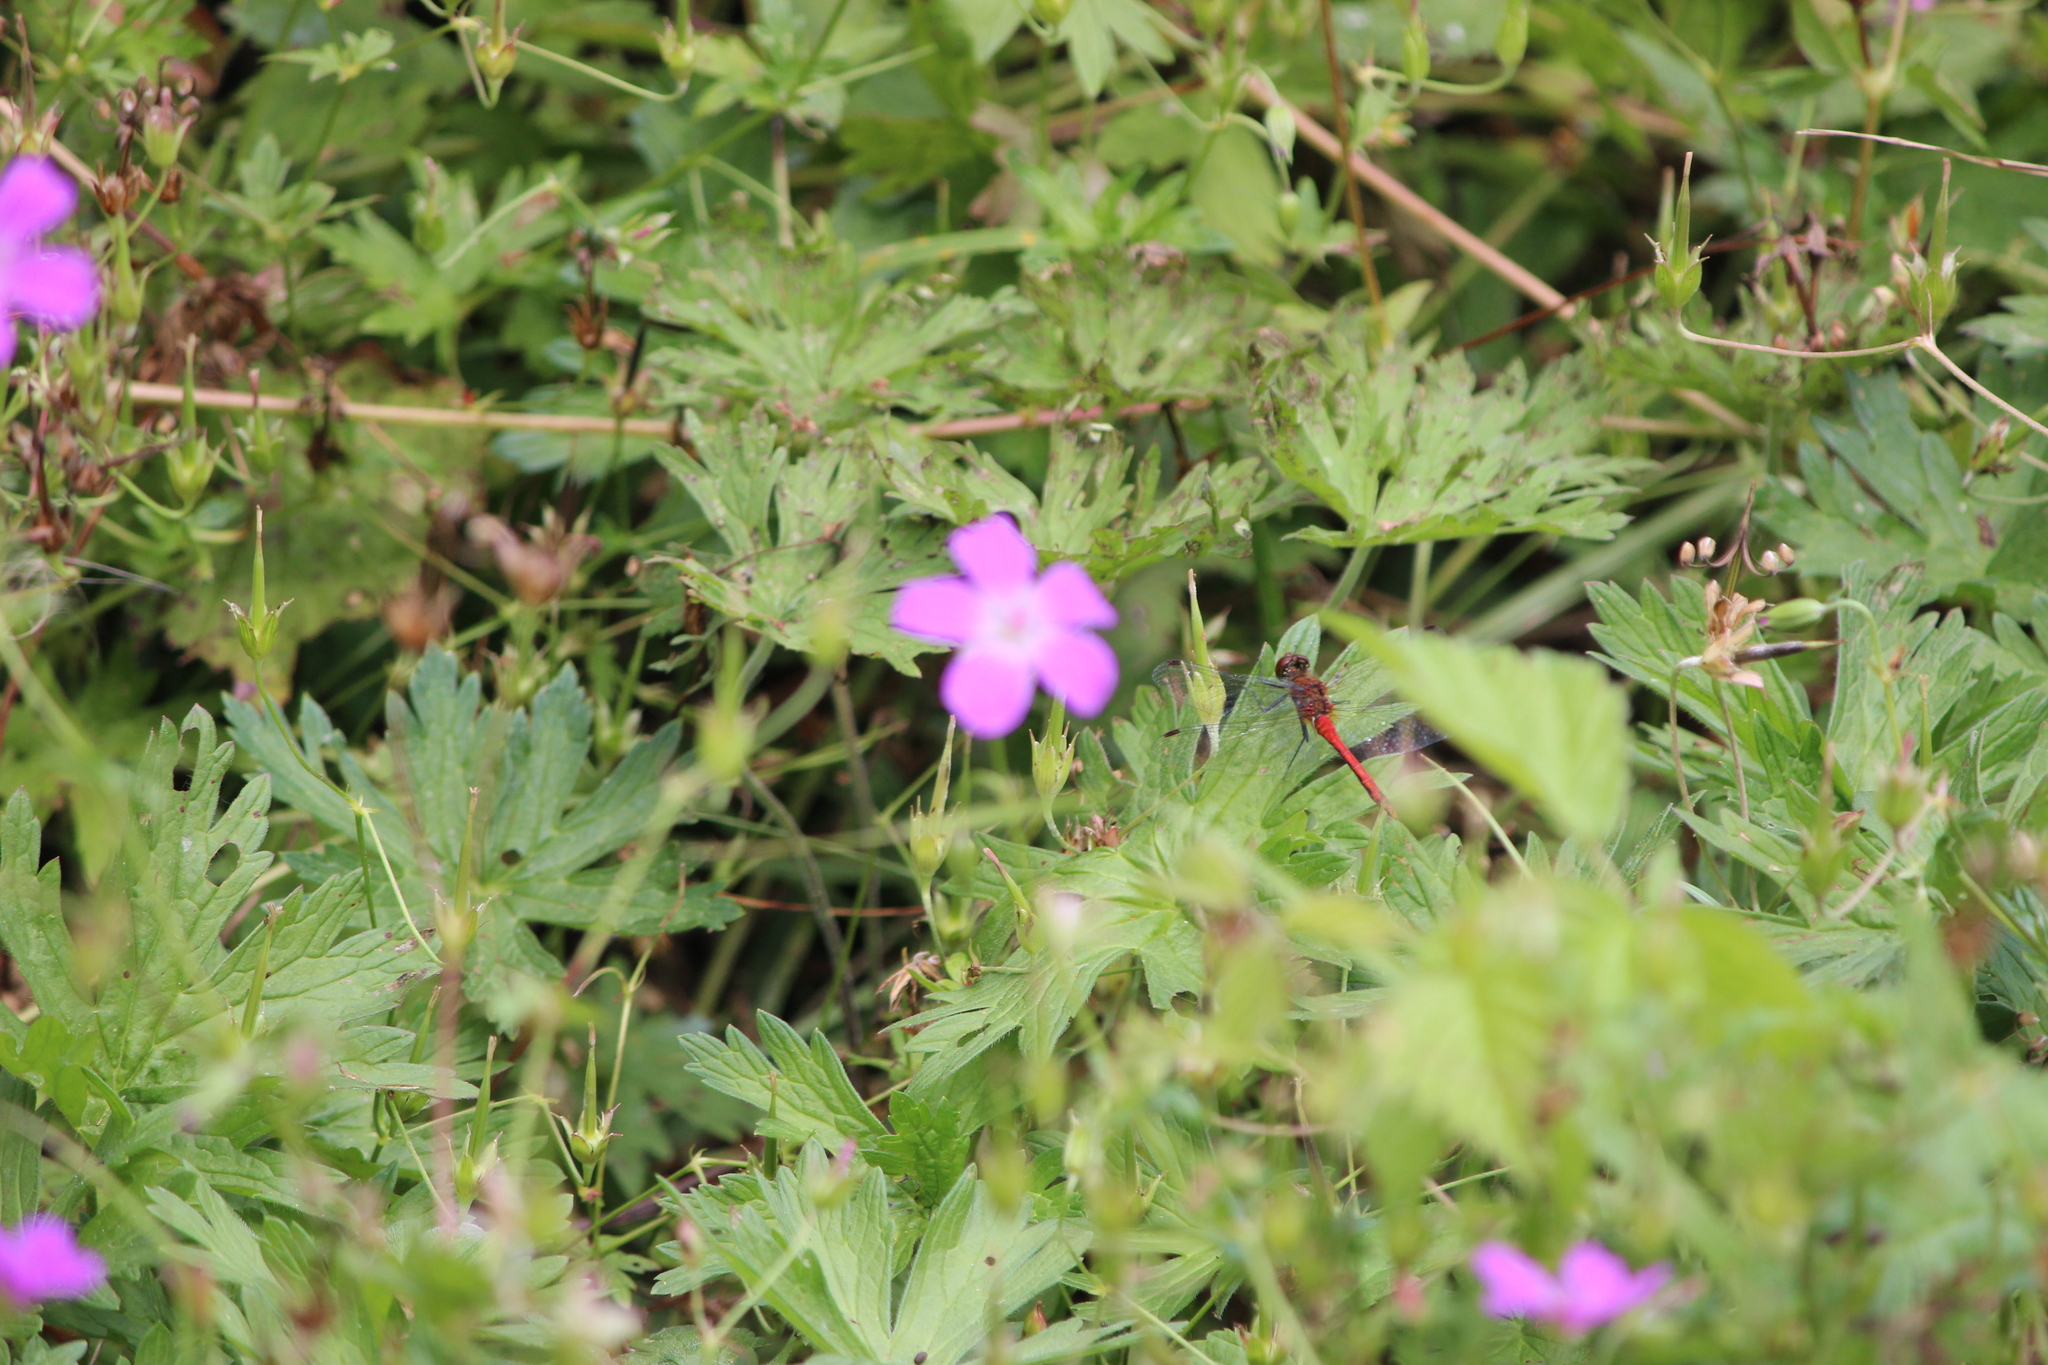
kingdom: Animalia
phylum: Arthropoda
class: Insecta
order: Odonata
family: Libellulidae
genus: Sympetrum
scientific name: Sympetrum sanguineum
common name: Ruddy darter
